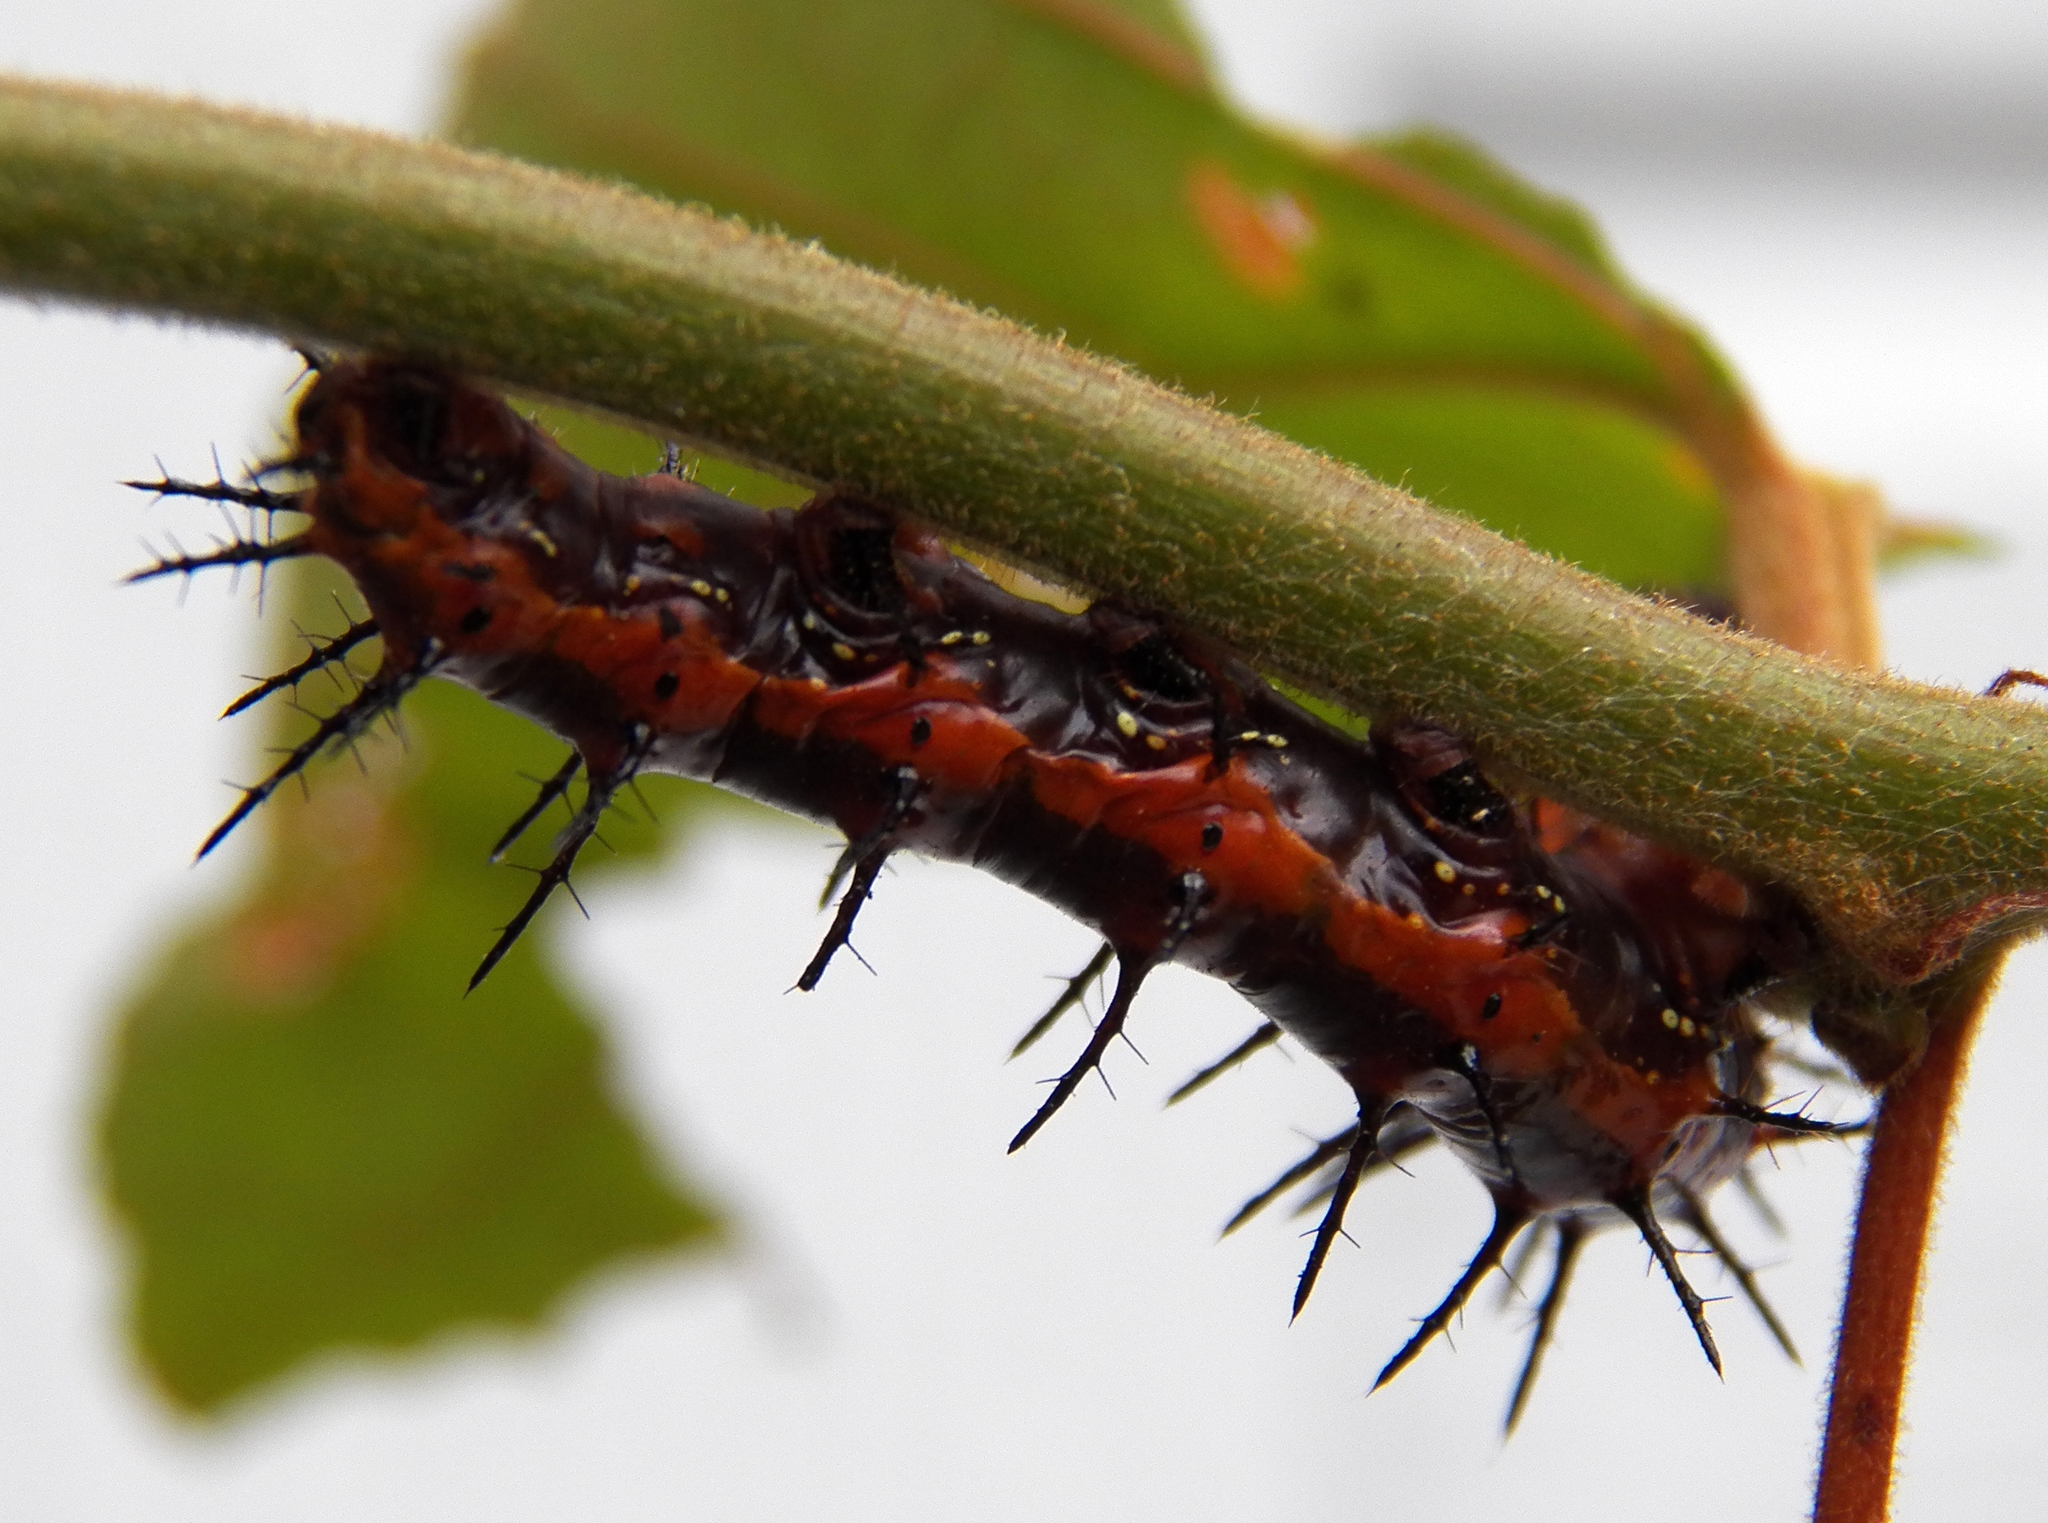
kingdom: Animalia
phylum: Arthropoda
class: Insecta
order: Lepidoptera
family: Nymphalidae
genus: Dione
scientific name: Dione vanillae
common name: Gulf fritillary
